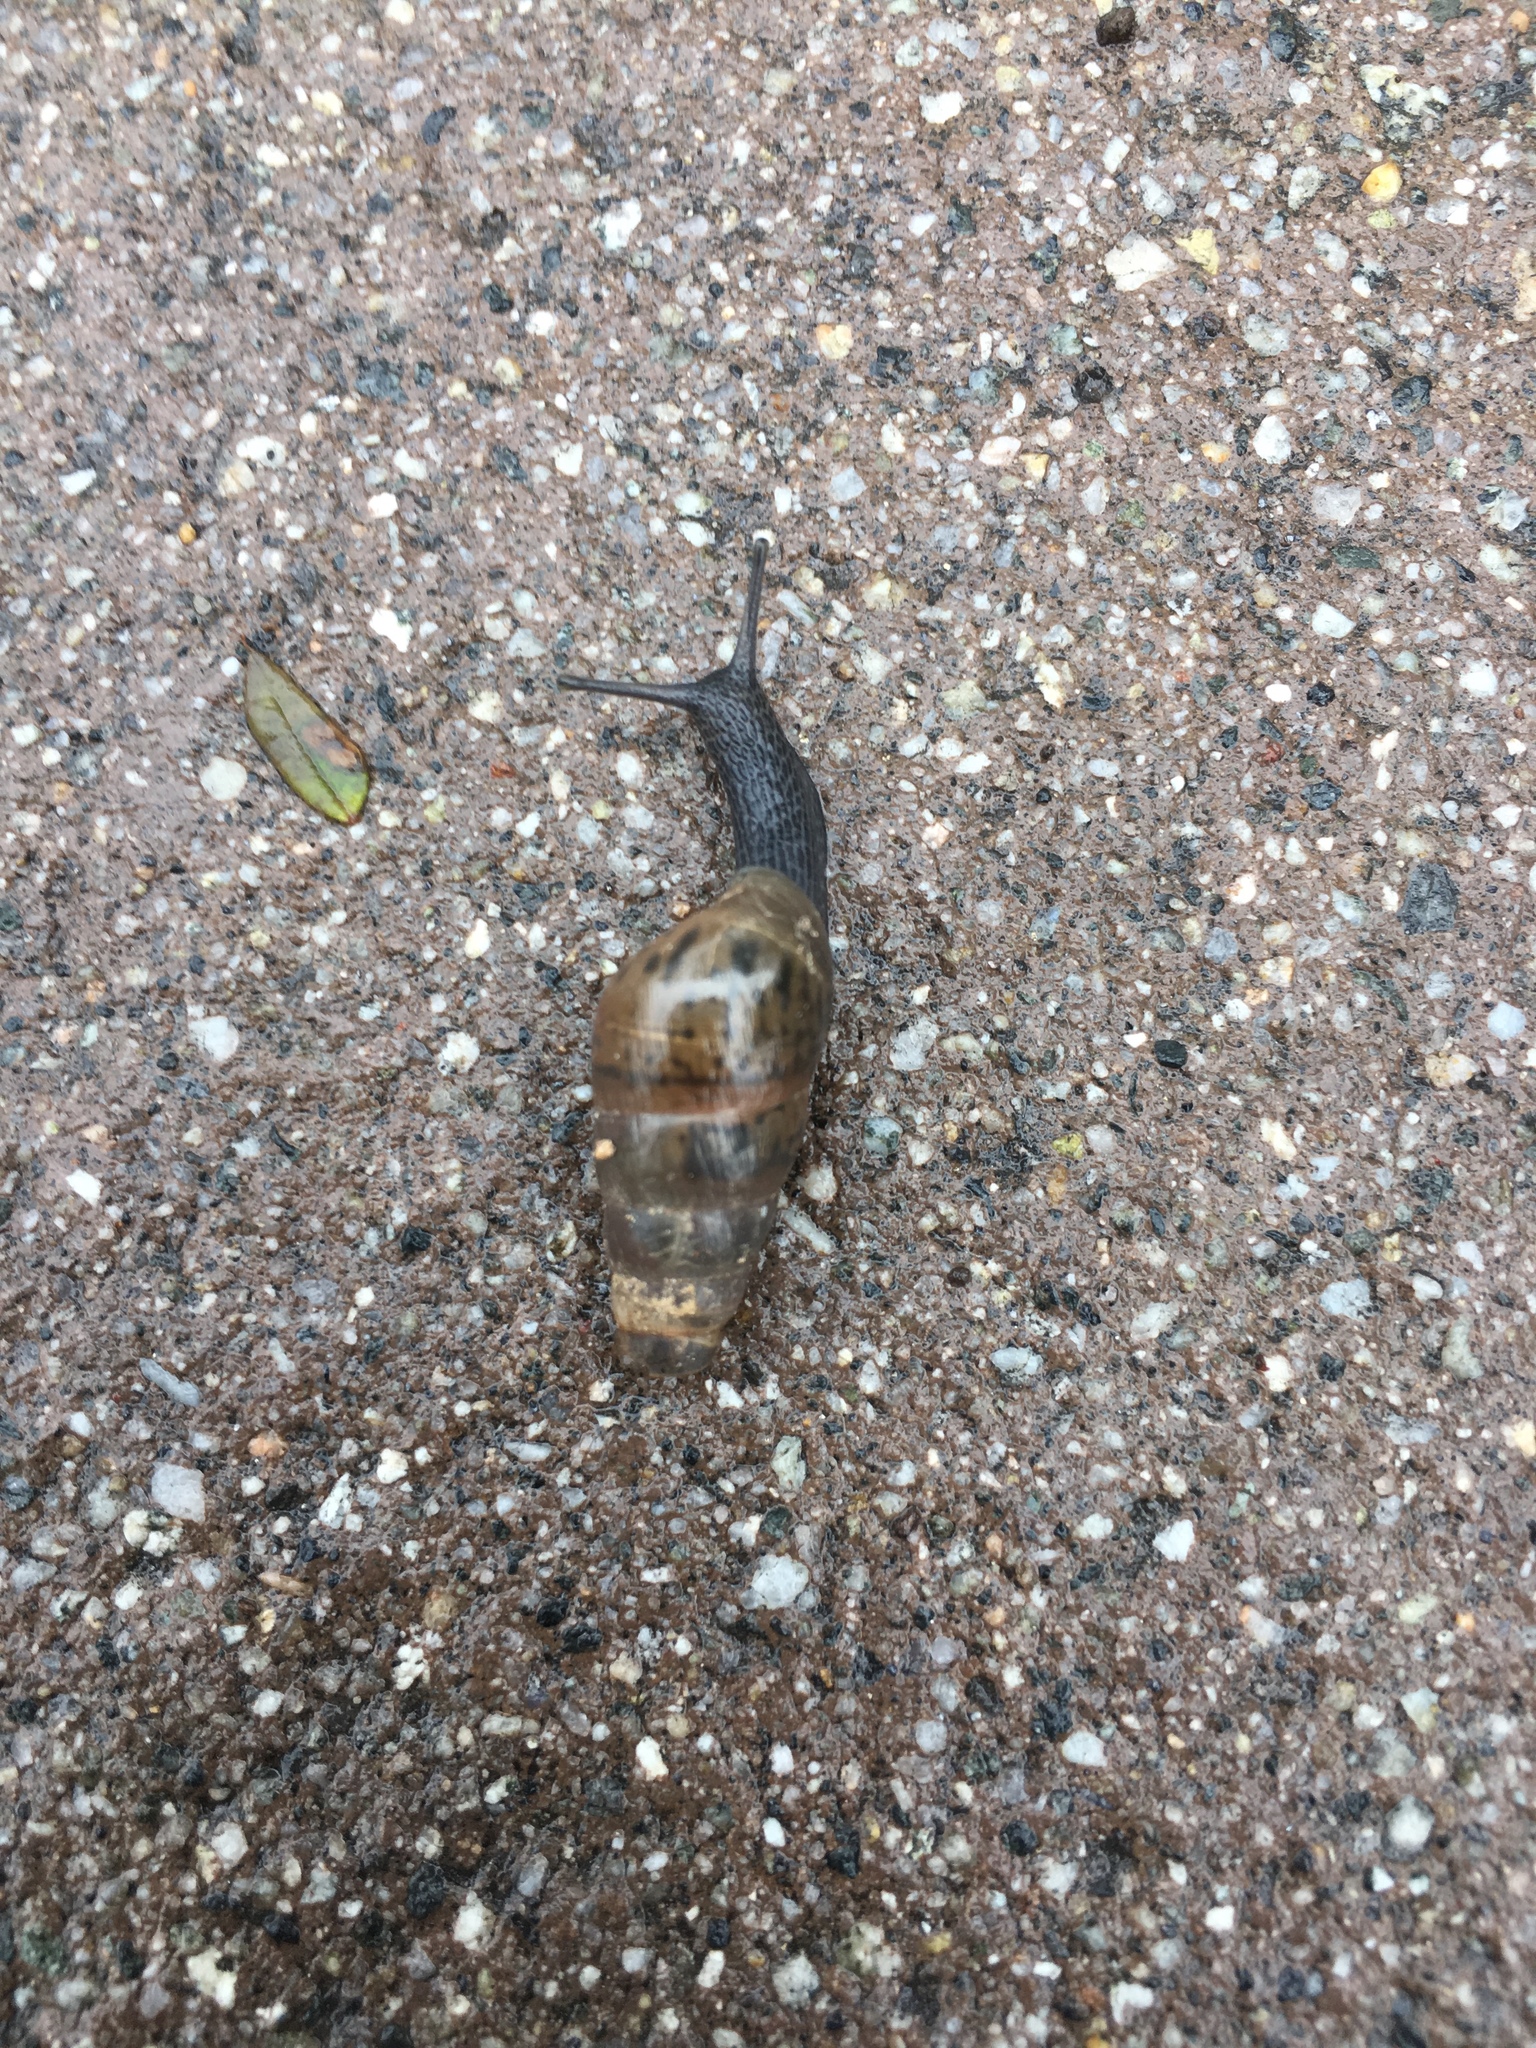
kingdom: Animalia
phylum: Mollusca
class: Gastropoda
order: Stylommatophora
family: Achatinidae
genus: Rumina
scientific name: Rumina decollata
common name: Decollate snail
